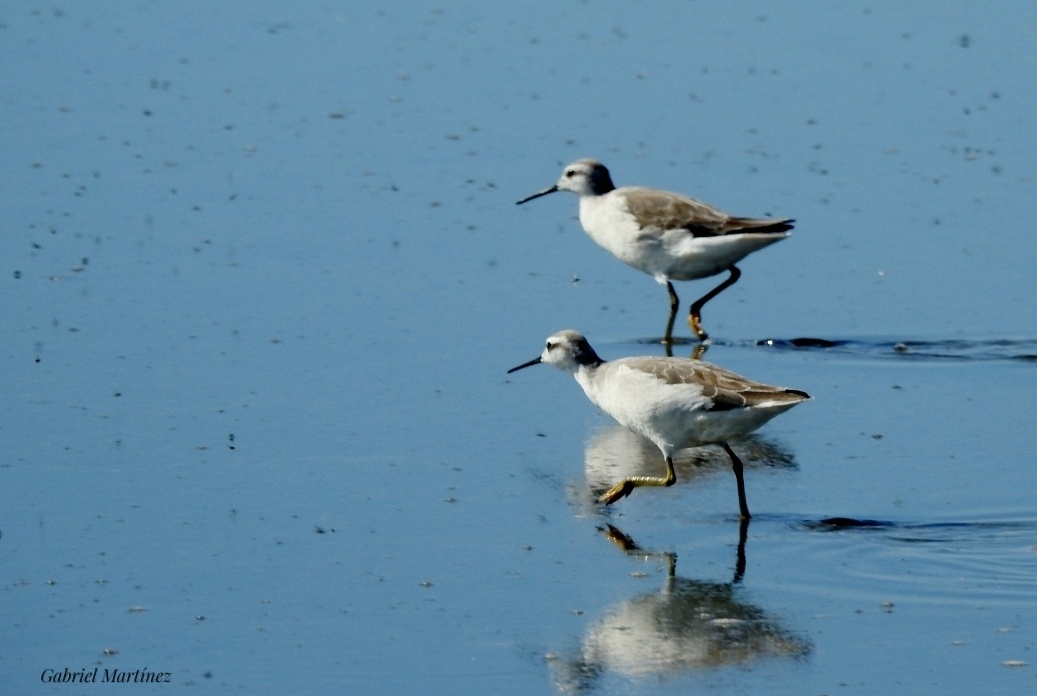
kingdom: Animalia
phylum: Chordata
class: Aves
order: Charadriiformes
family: Scolopacidae
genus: Phalaropus
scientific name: Phalaropus tricolor
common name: Wilson's phalarope
